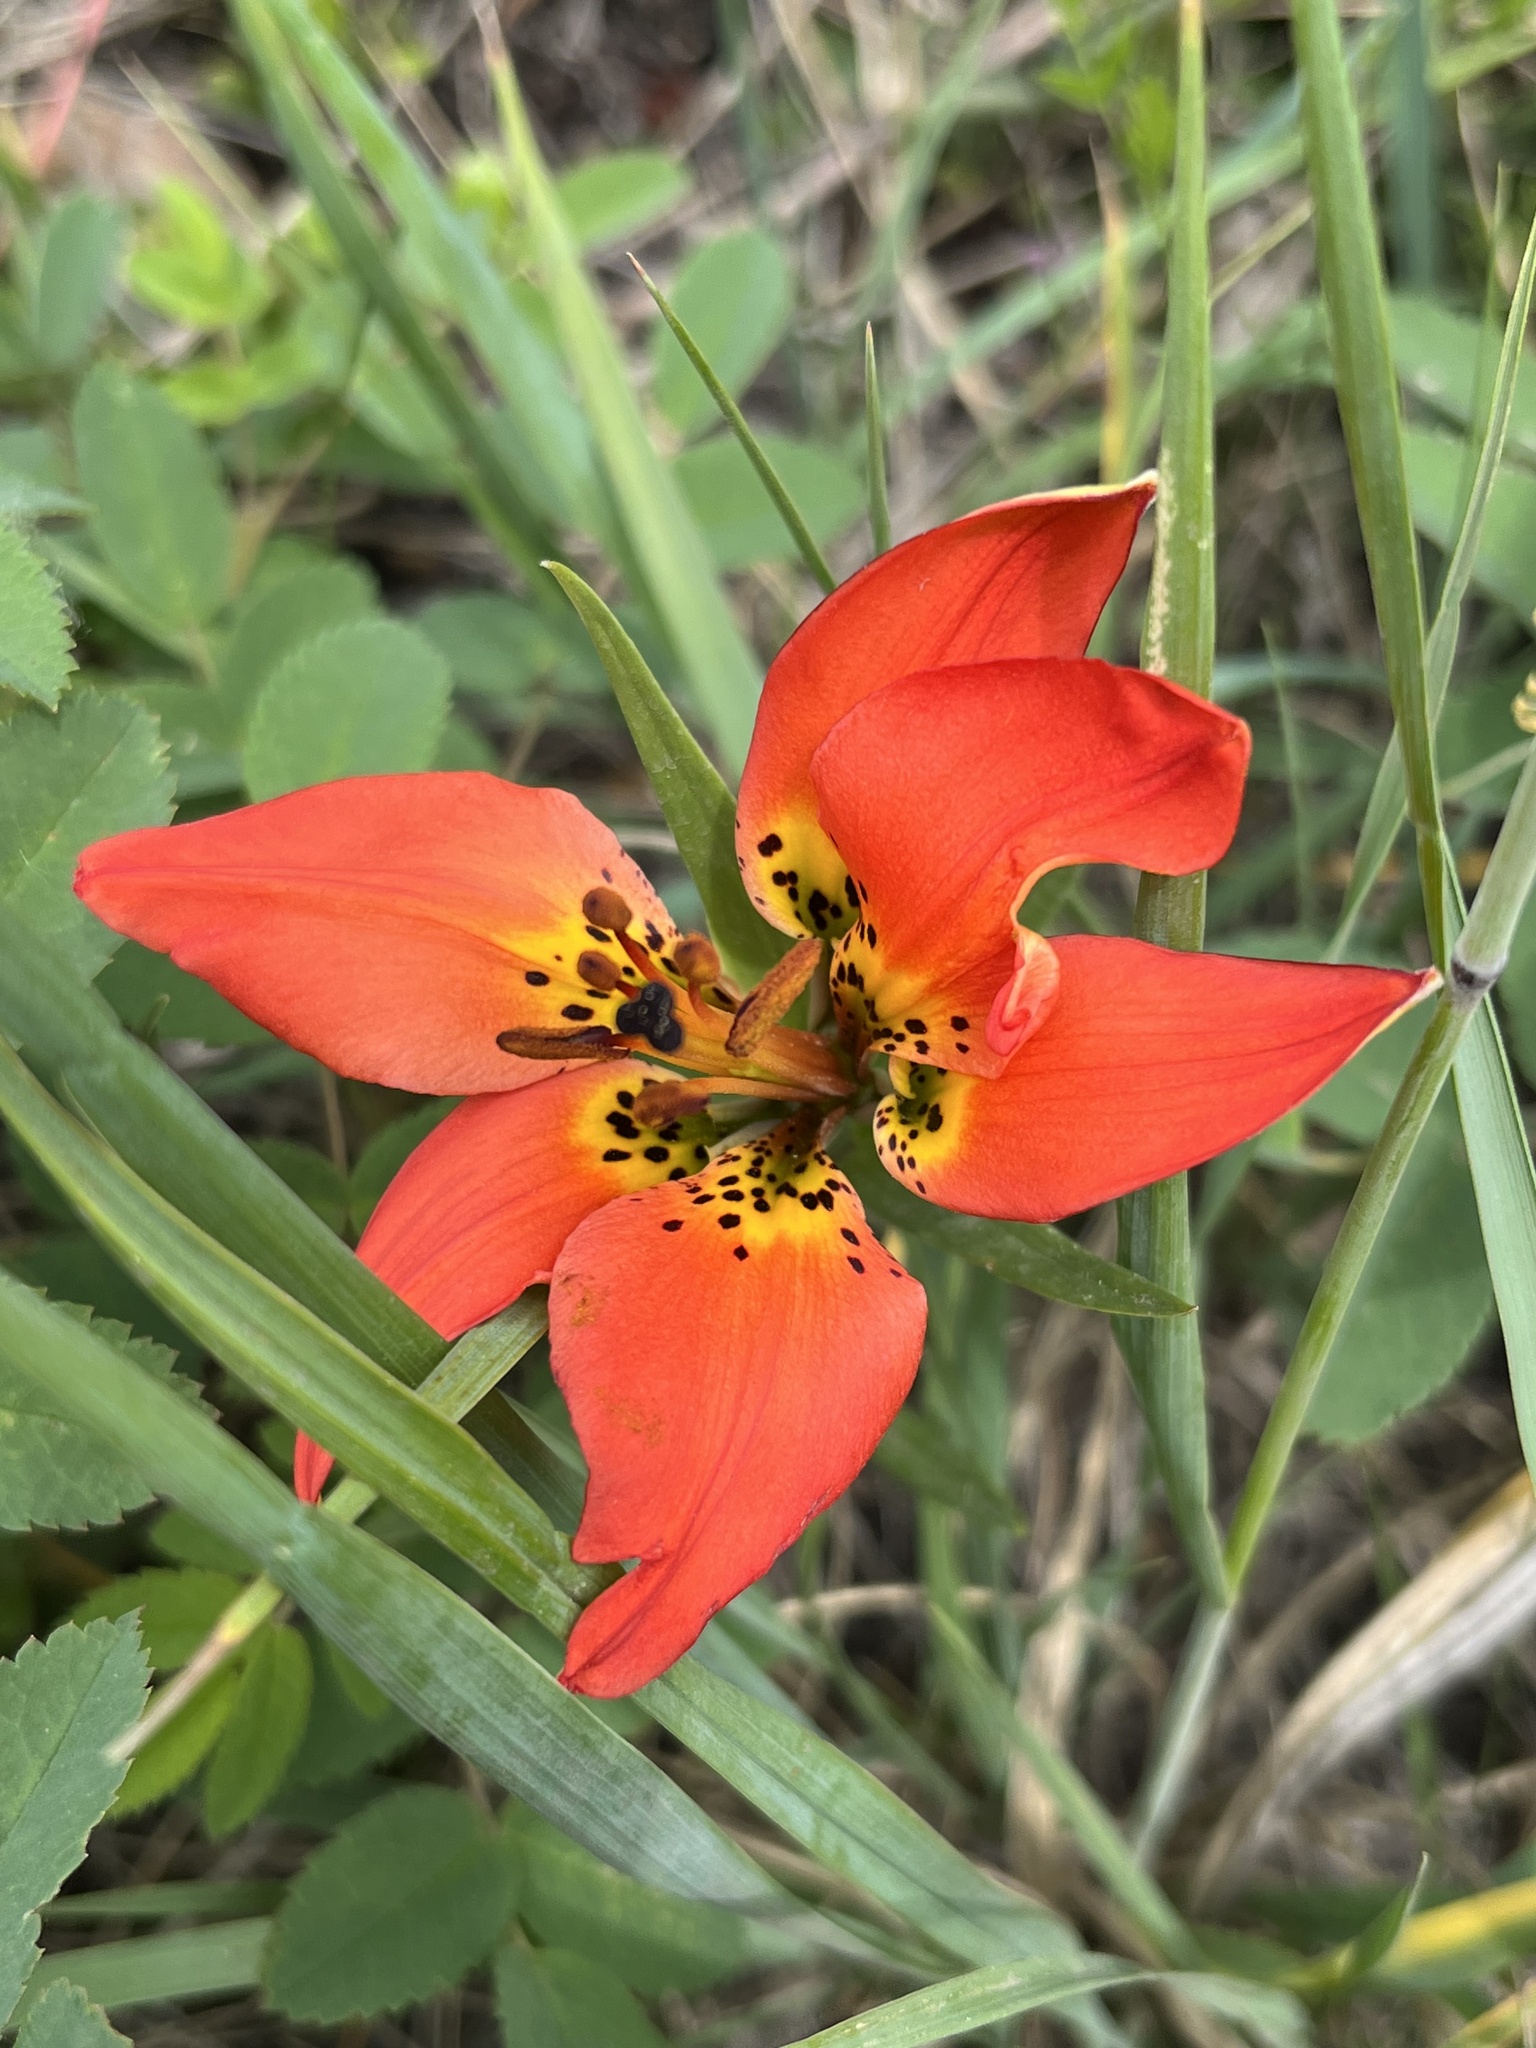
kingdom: Plantae
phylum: Tracheophyta
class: Liliopsida
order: Liliales
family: Liliaceae
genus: Lilium
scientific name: Lilium philadelphicum
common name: Red lily
